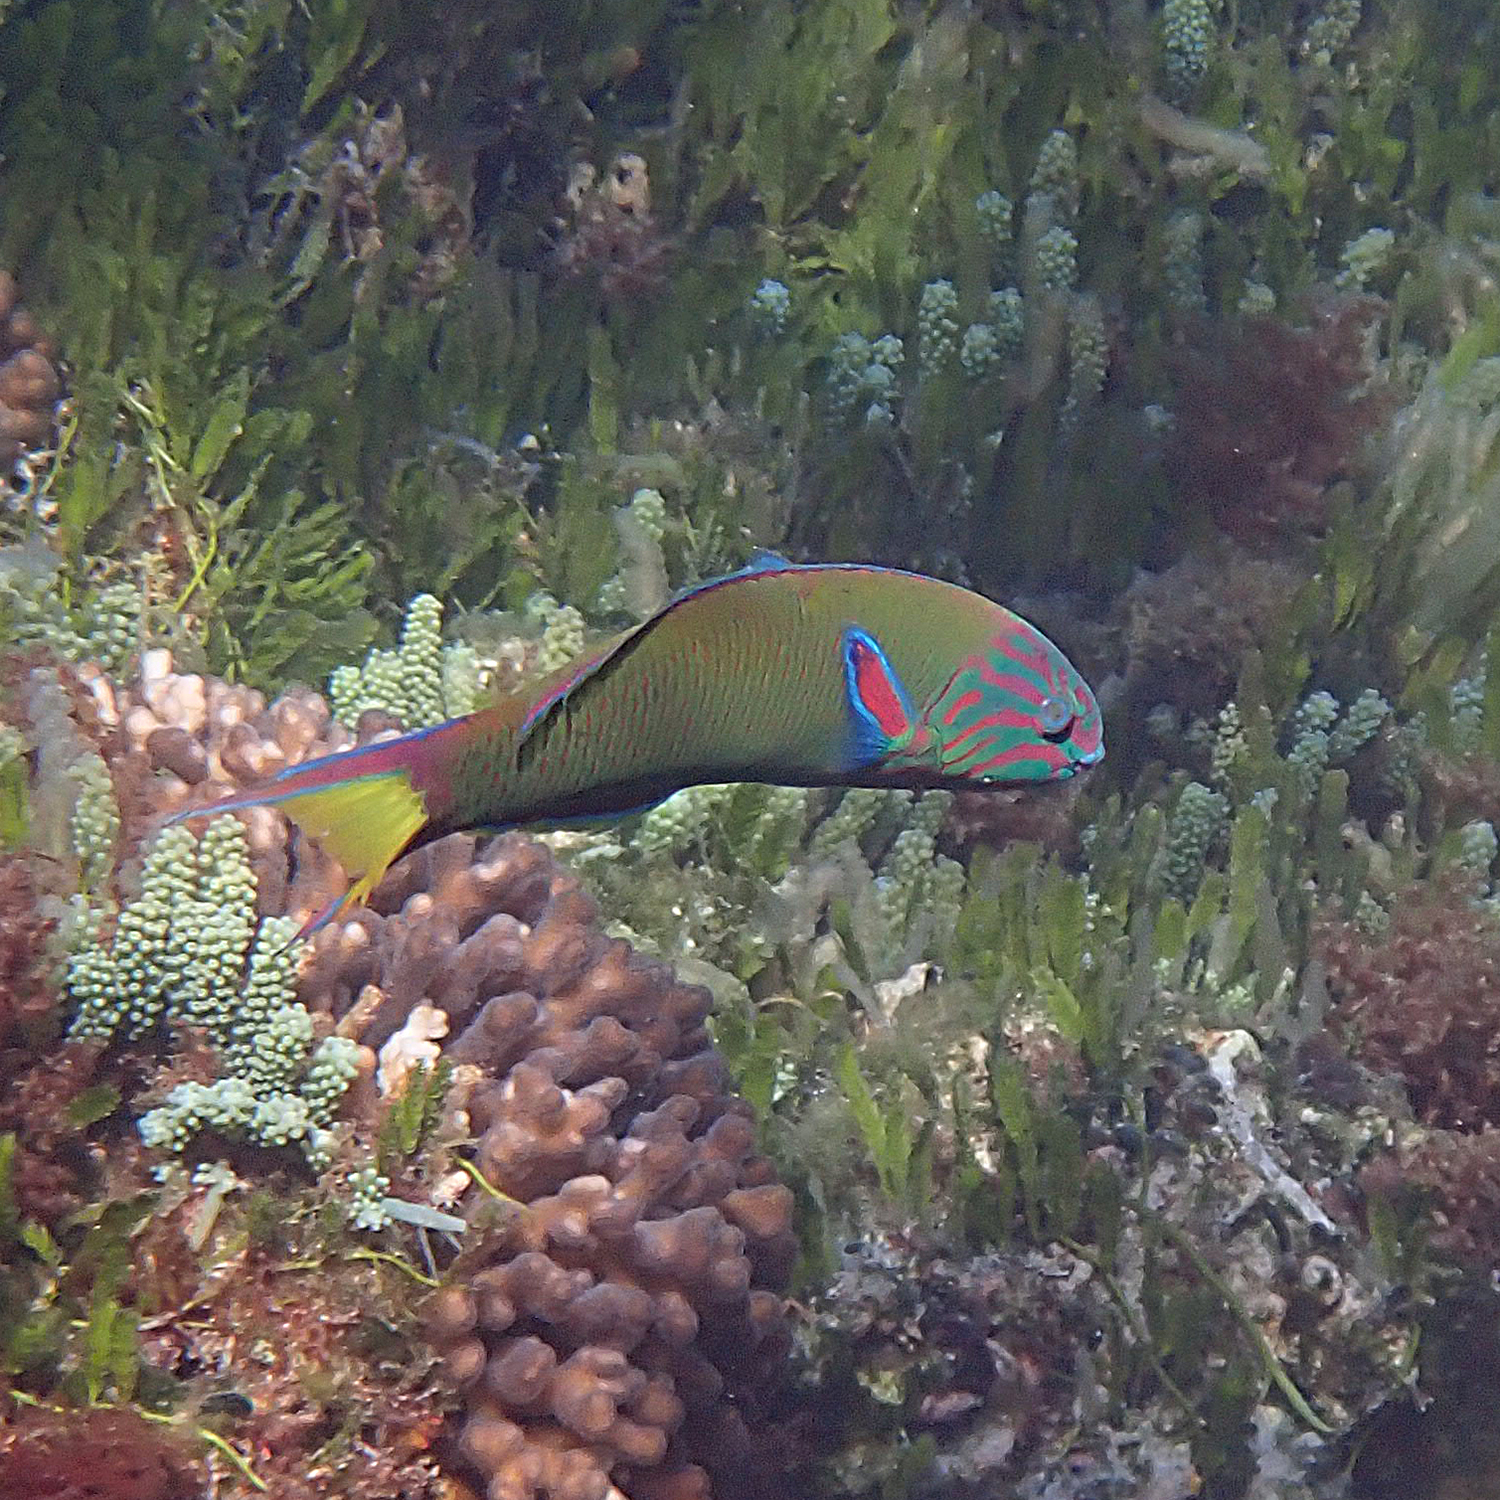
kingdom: Animalia
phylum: Chordata
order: Perciformes
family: Labridae
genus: Thalassoma
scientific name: Thalassoma lunare
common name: Blue wrasse
